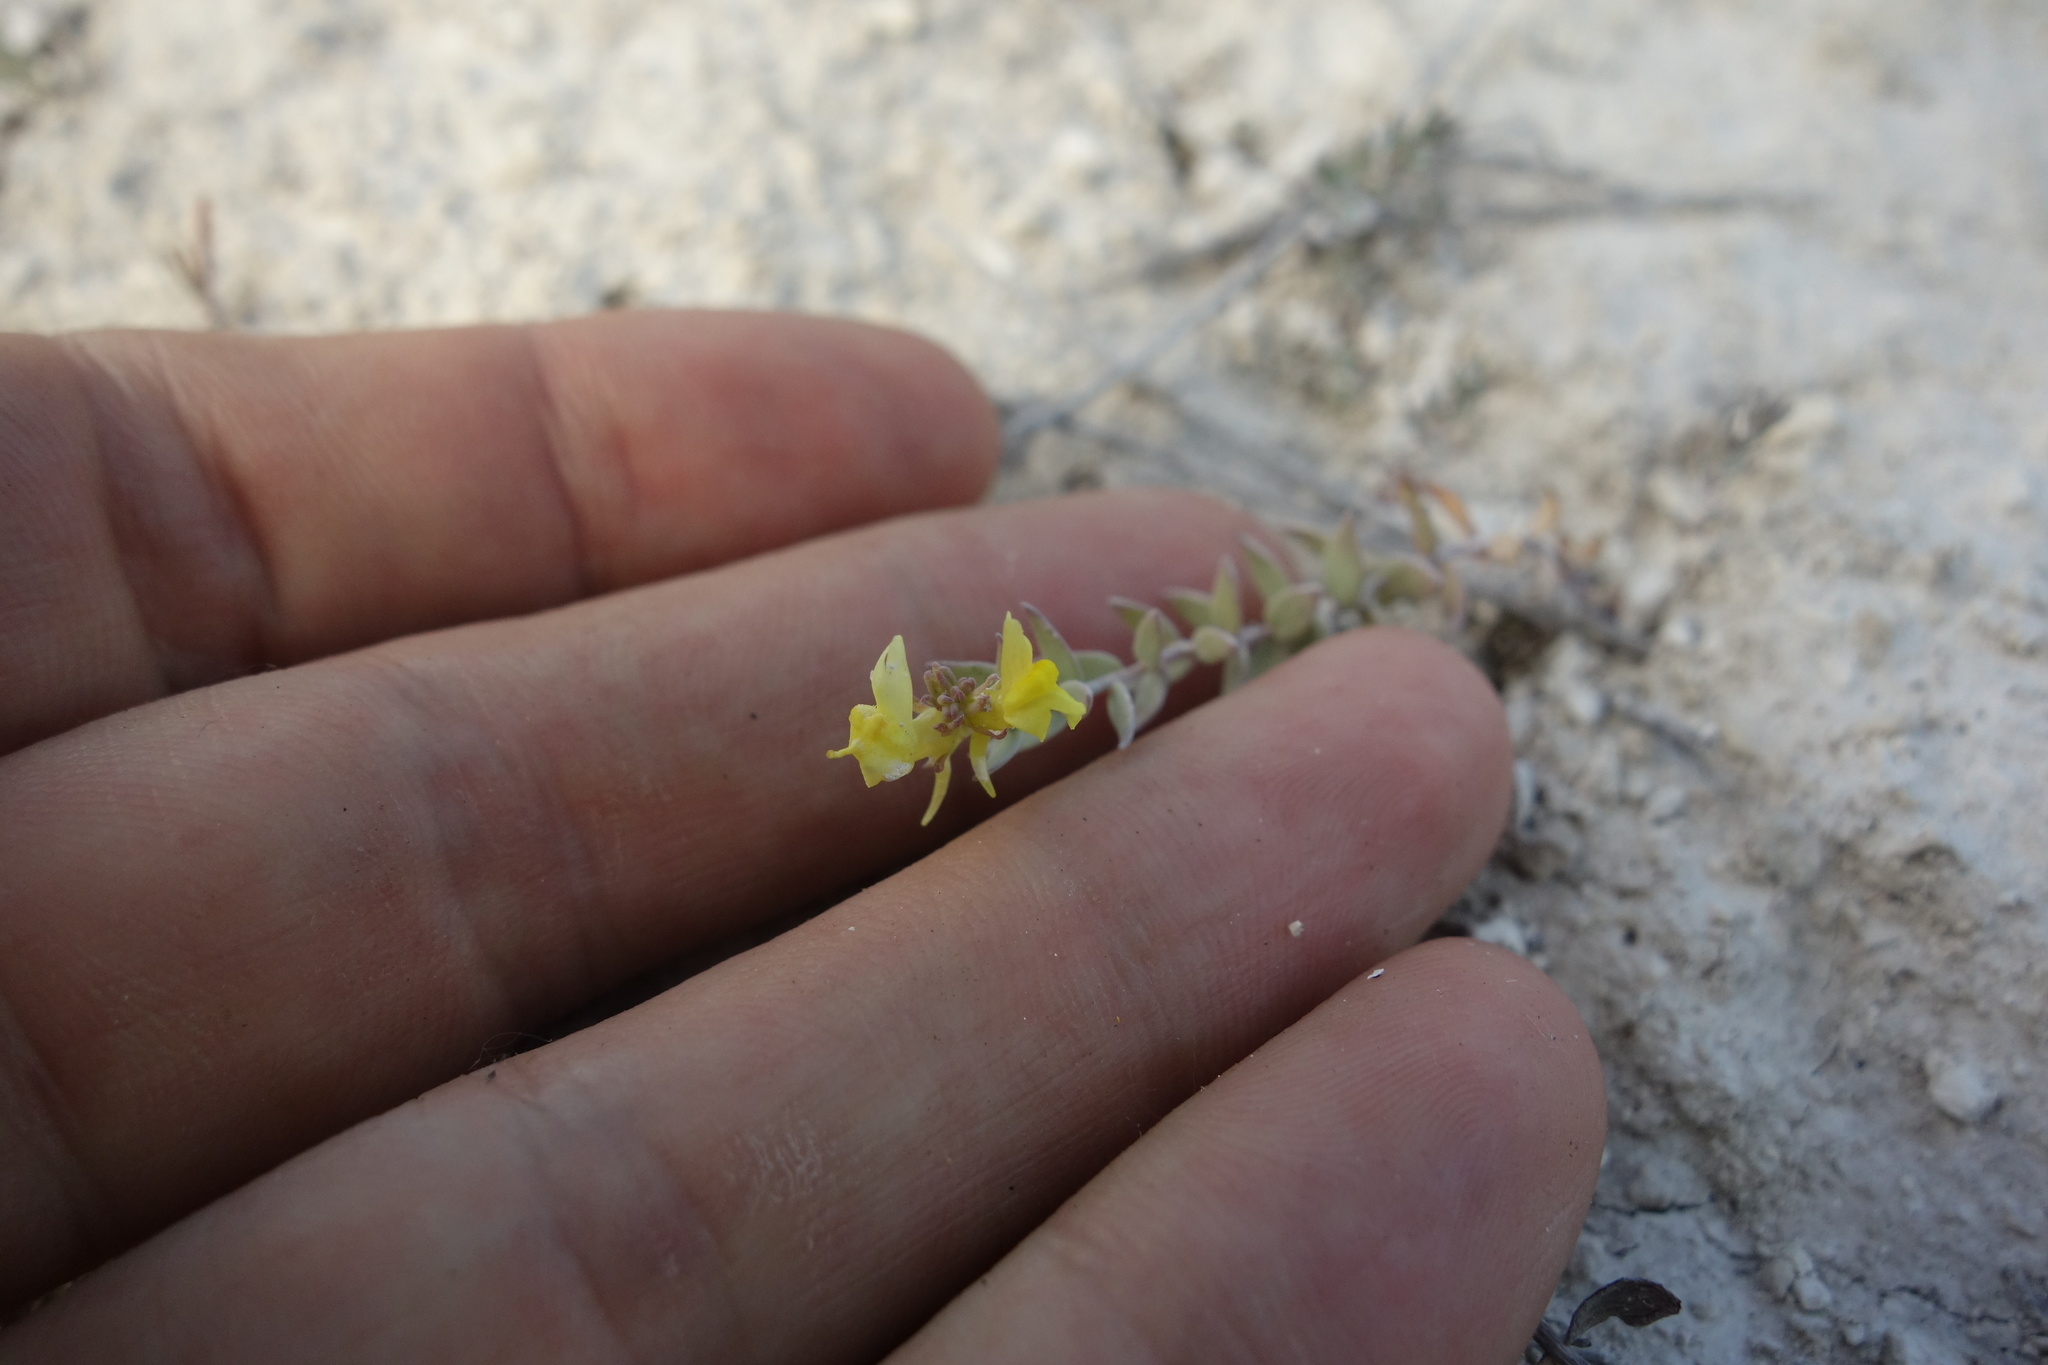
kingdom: Plantae
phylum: Tracheophyta
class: Magnoliopsida
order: Lamiales
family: Plantaginaceae
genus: Linaria
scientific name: Linaria cretacea
